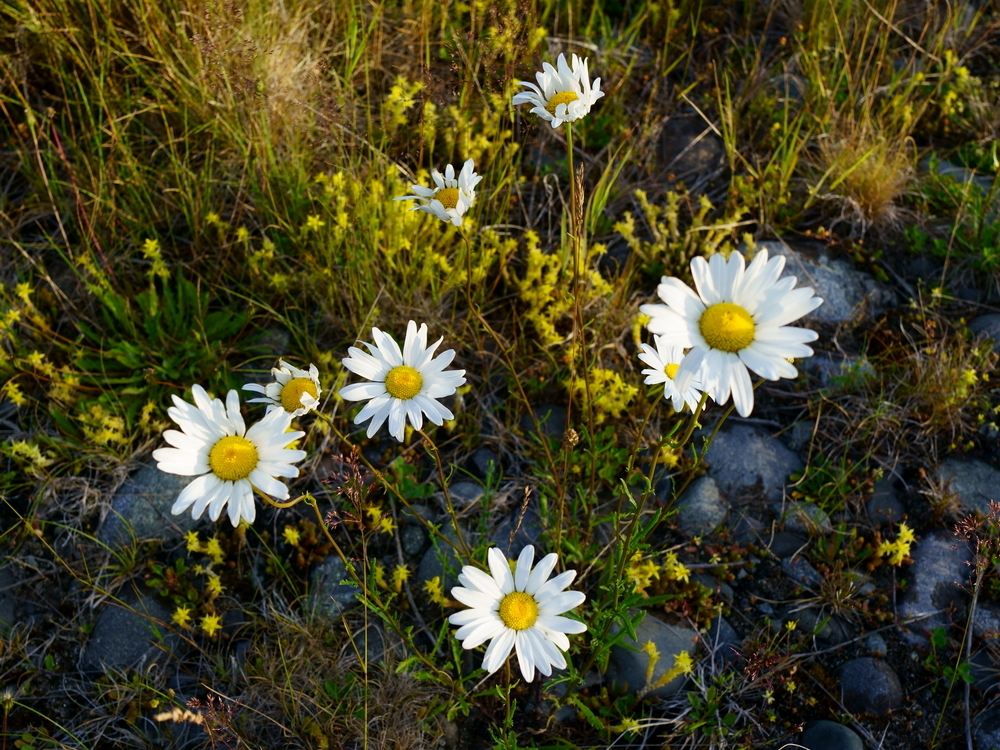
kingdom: Plantae
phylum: Tracheophyta
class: Magnoliopsida
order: Asterales
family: Asteraceae
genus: Leucanthemum
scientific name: Leucanthemum vulgare
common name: Oxeye daisy
